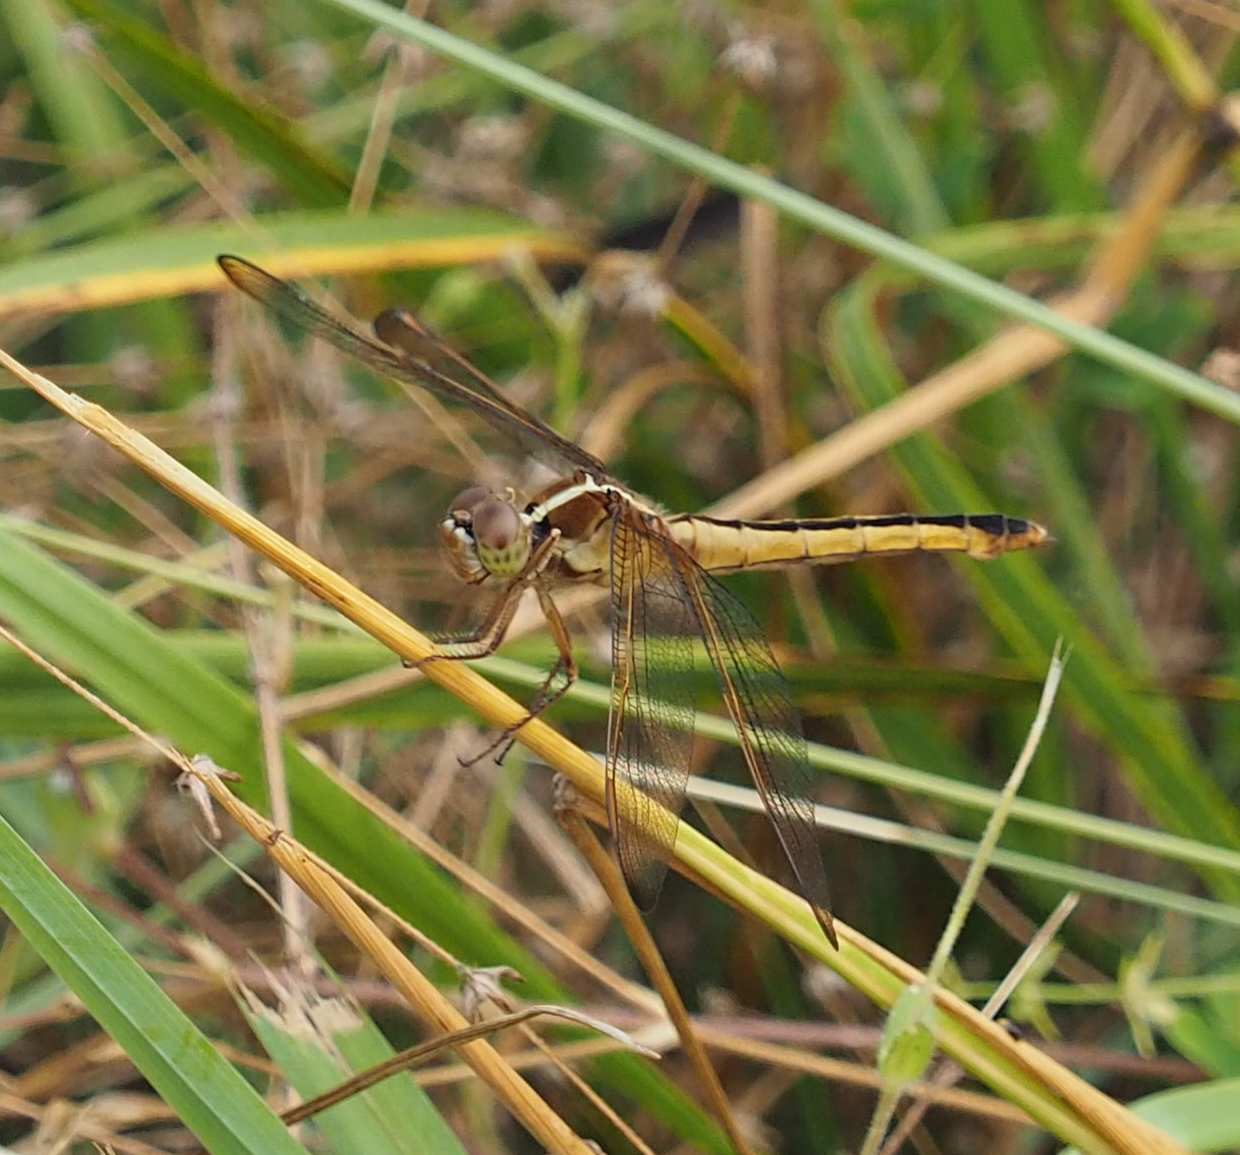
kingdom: Animalia
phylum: Arthropoda
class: Insecta
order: Odonata
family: Libellulidae
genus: Libellula
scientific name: Libellula needhami
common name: Needham's skimmer
